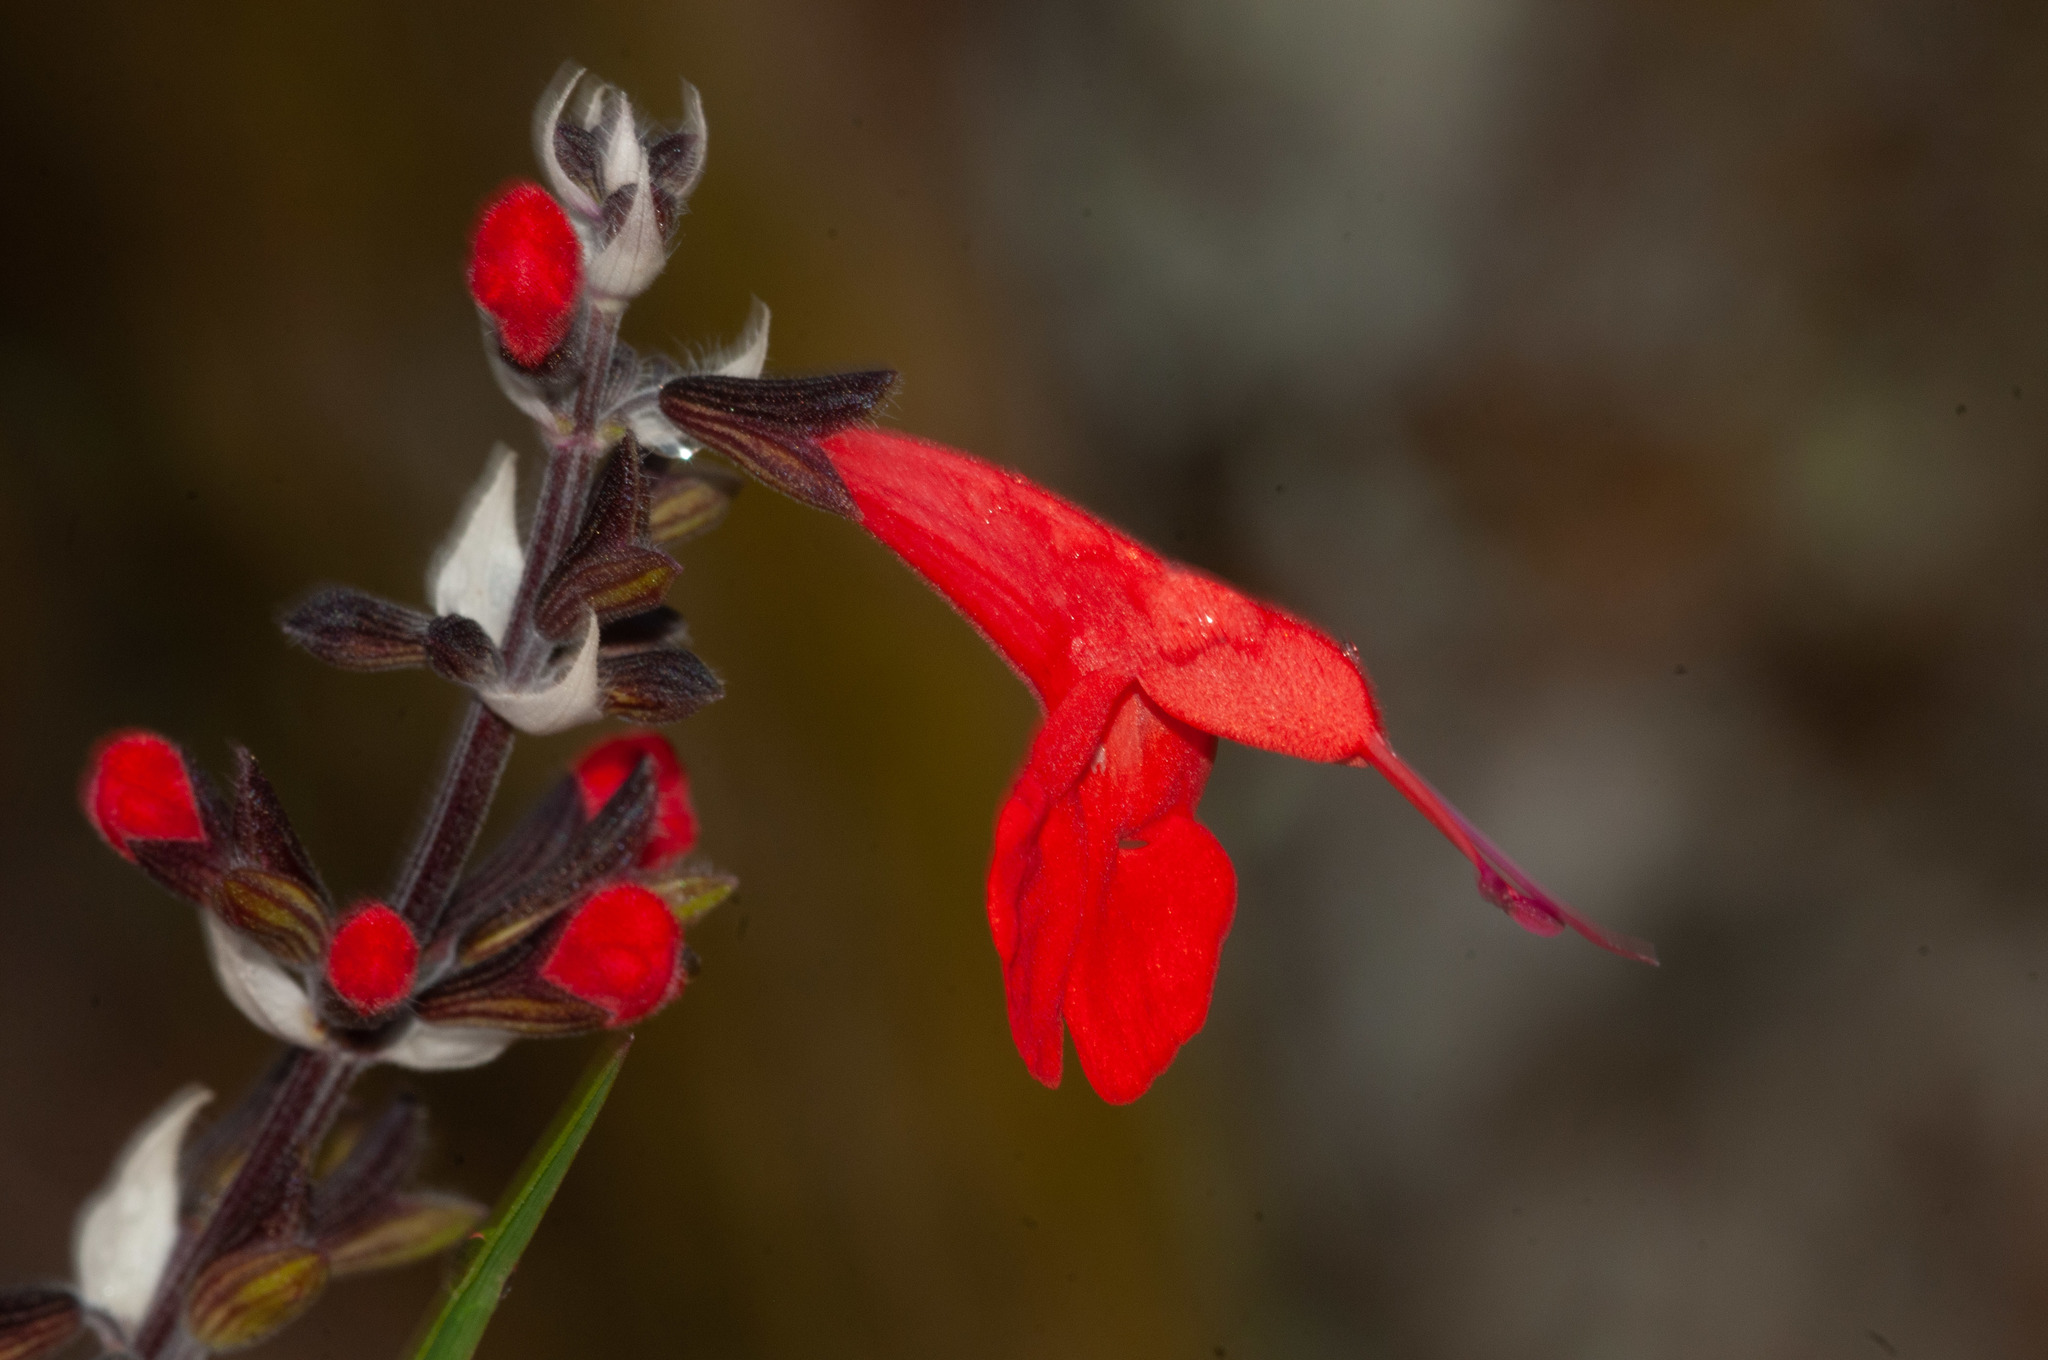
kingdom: Plantae
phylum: Tracheophyta
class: Magnoliopsida
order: Lamiales
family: Lamiaceae
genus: Salvia
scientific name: Salvia coccinea
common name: Blood sage
